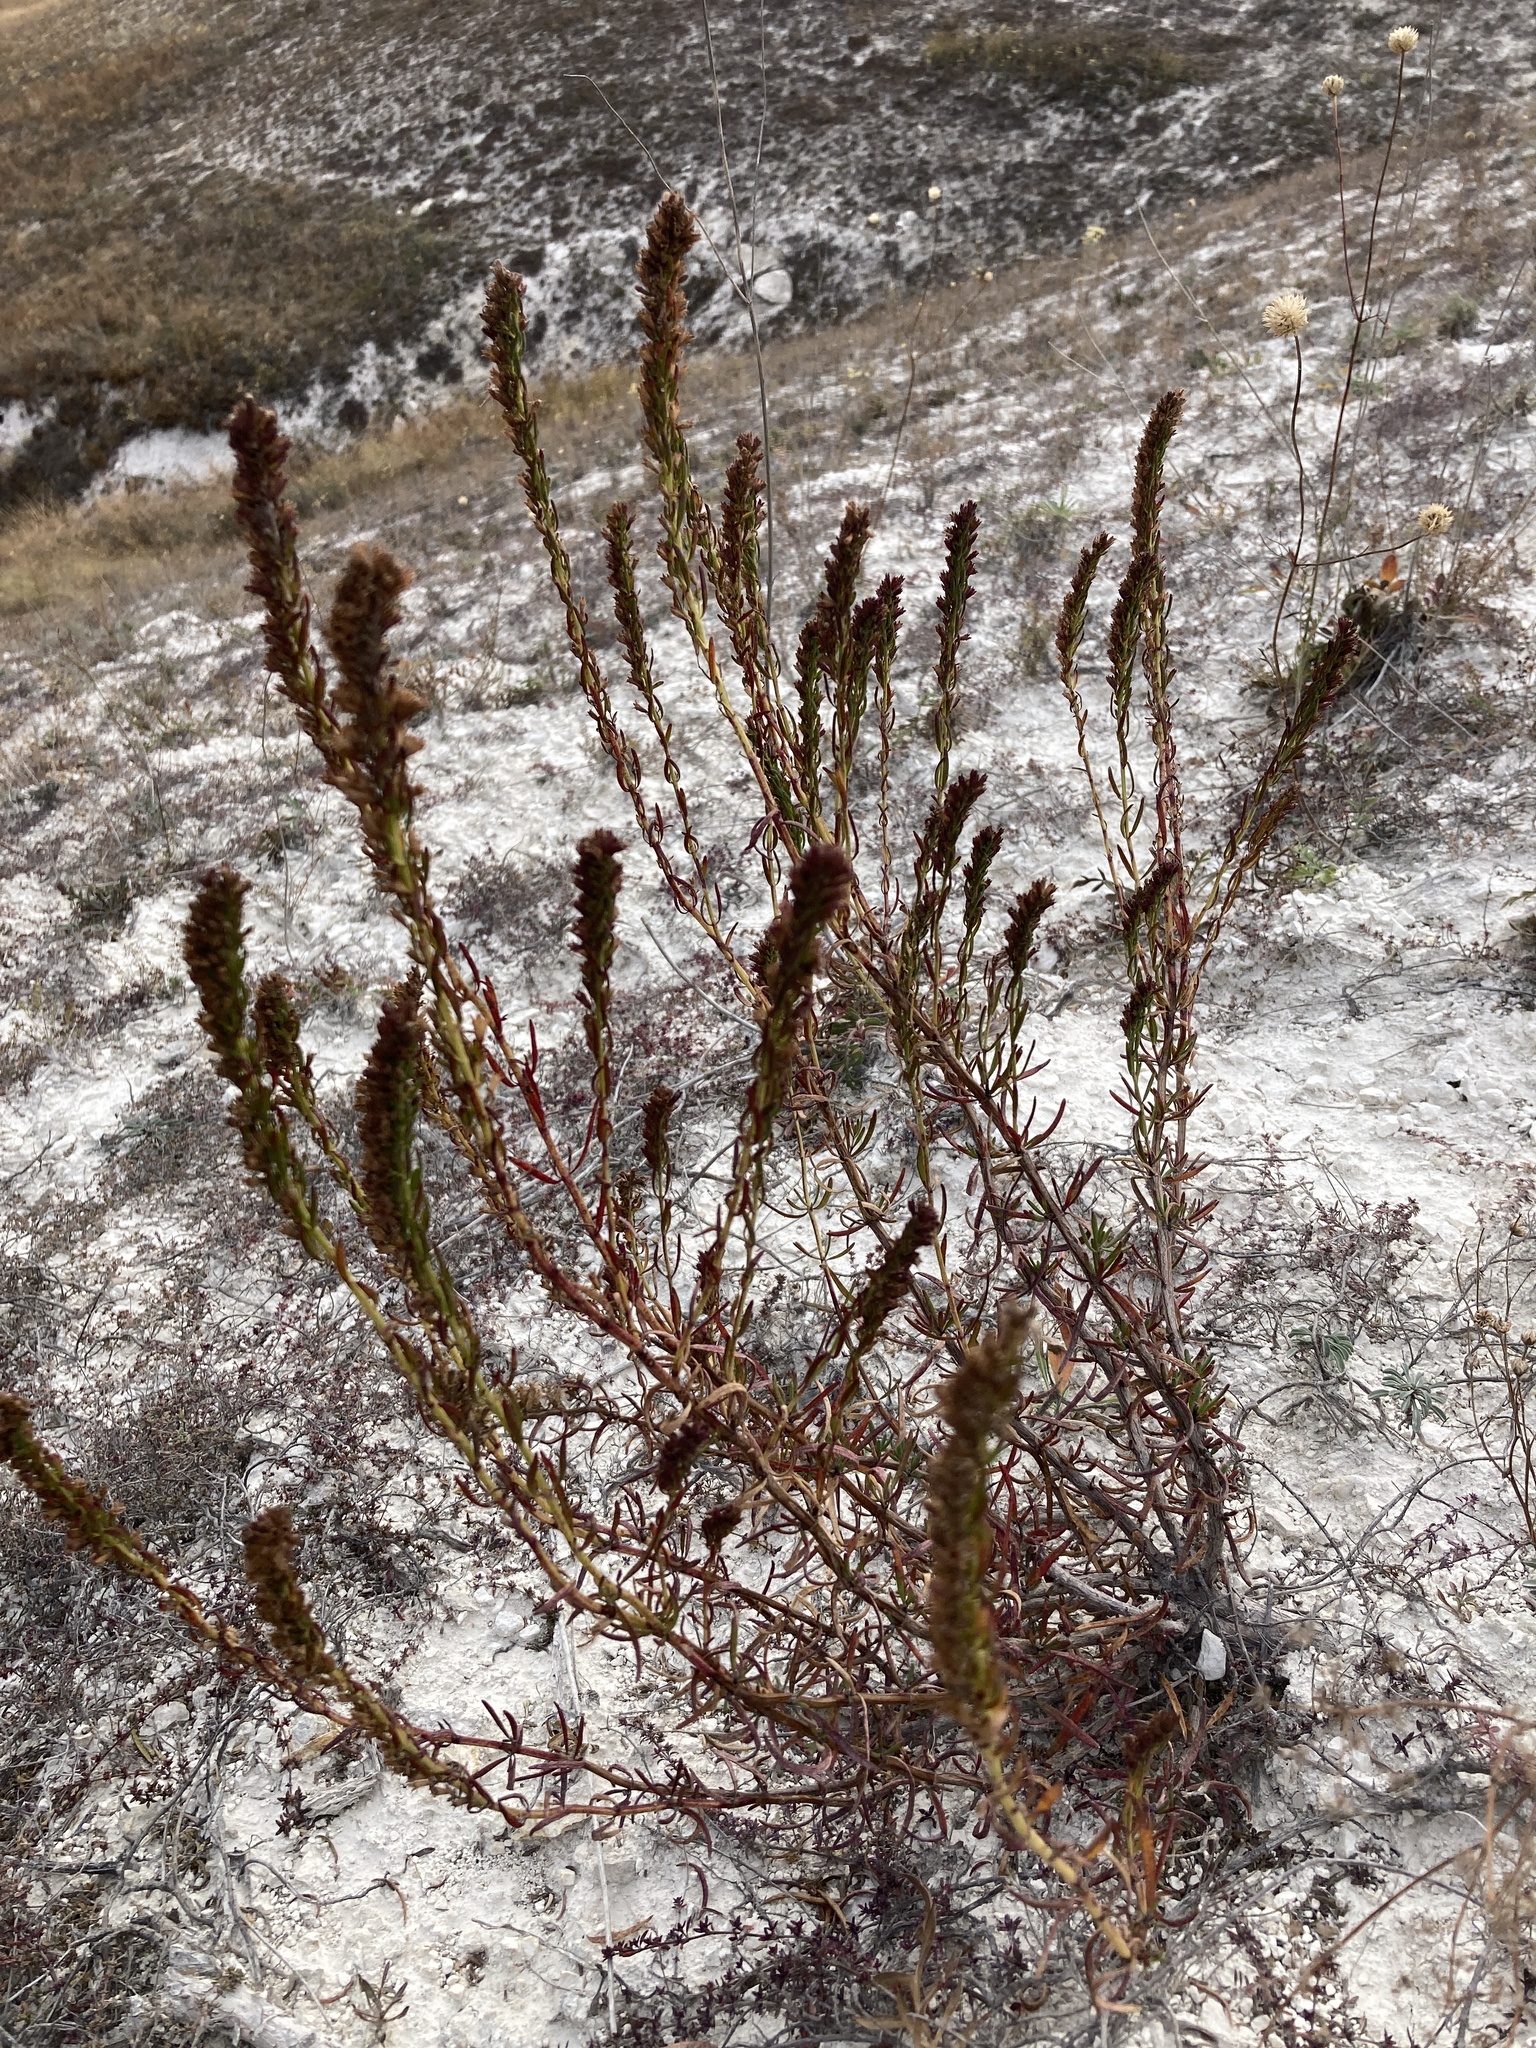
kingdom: Plantae
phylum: Tracheophyta
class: Magnoliopsida
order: Lamiales
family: Lamiaceae
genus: Hyssopus
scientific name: Hyssopus officinalis
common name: Hyssop
